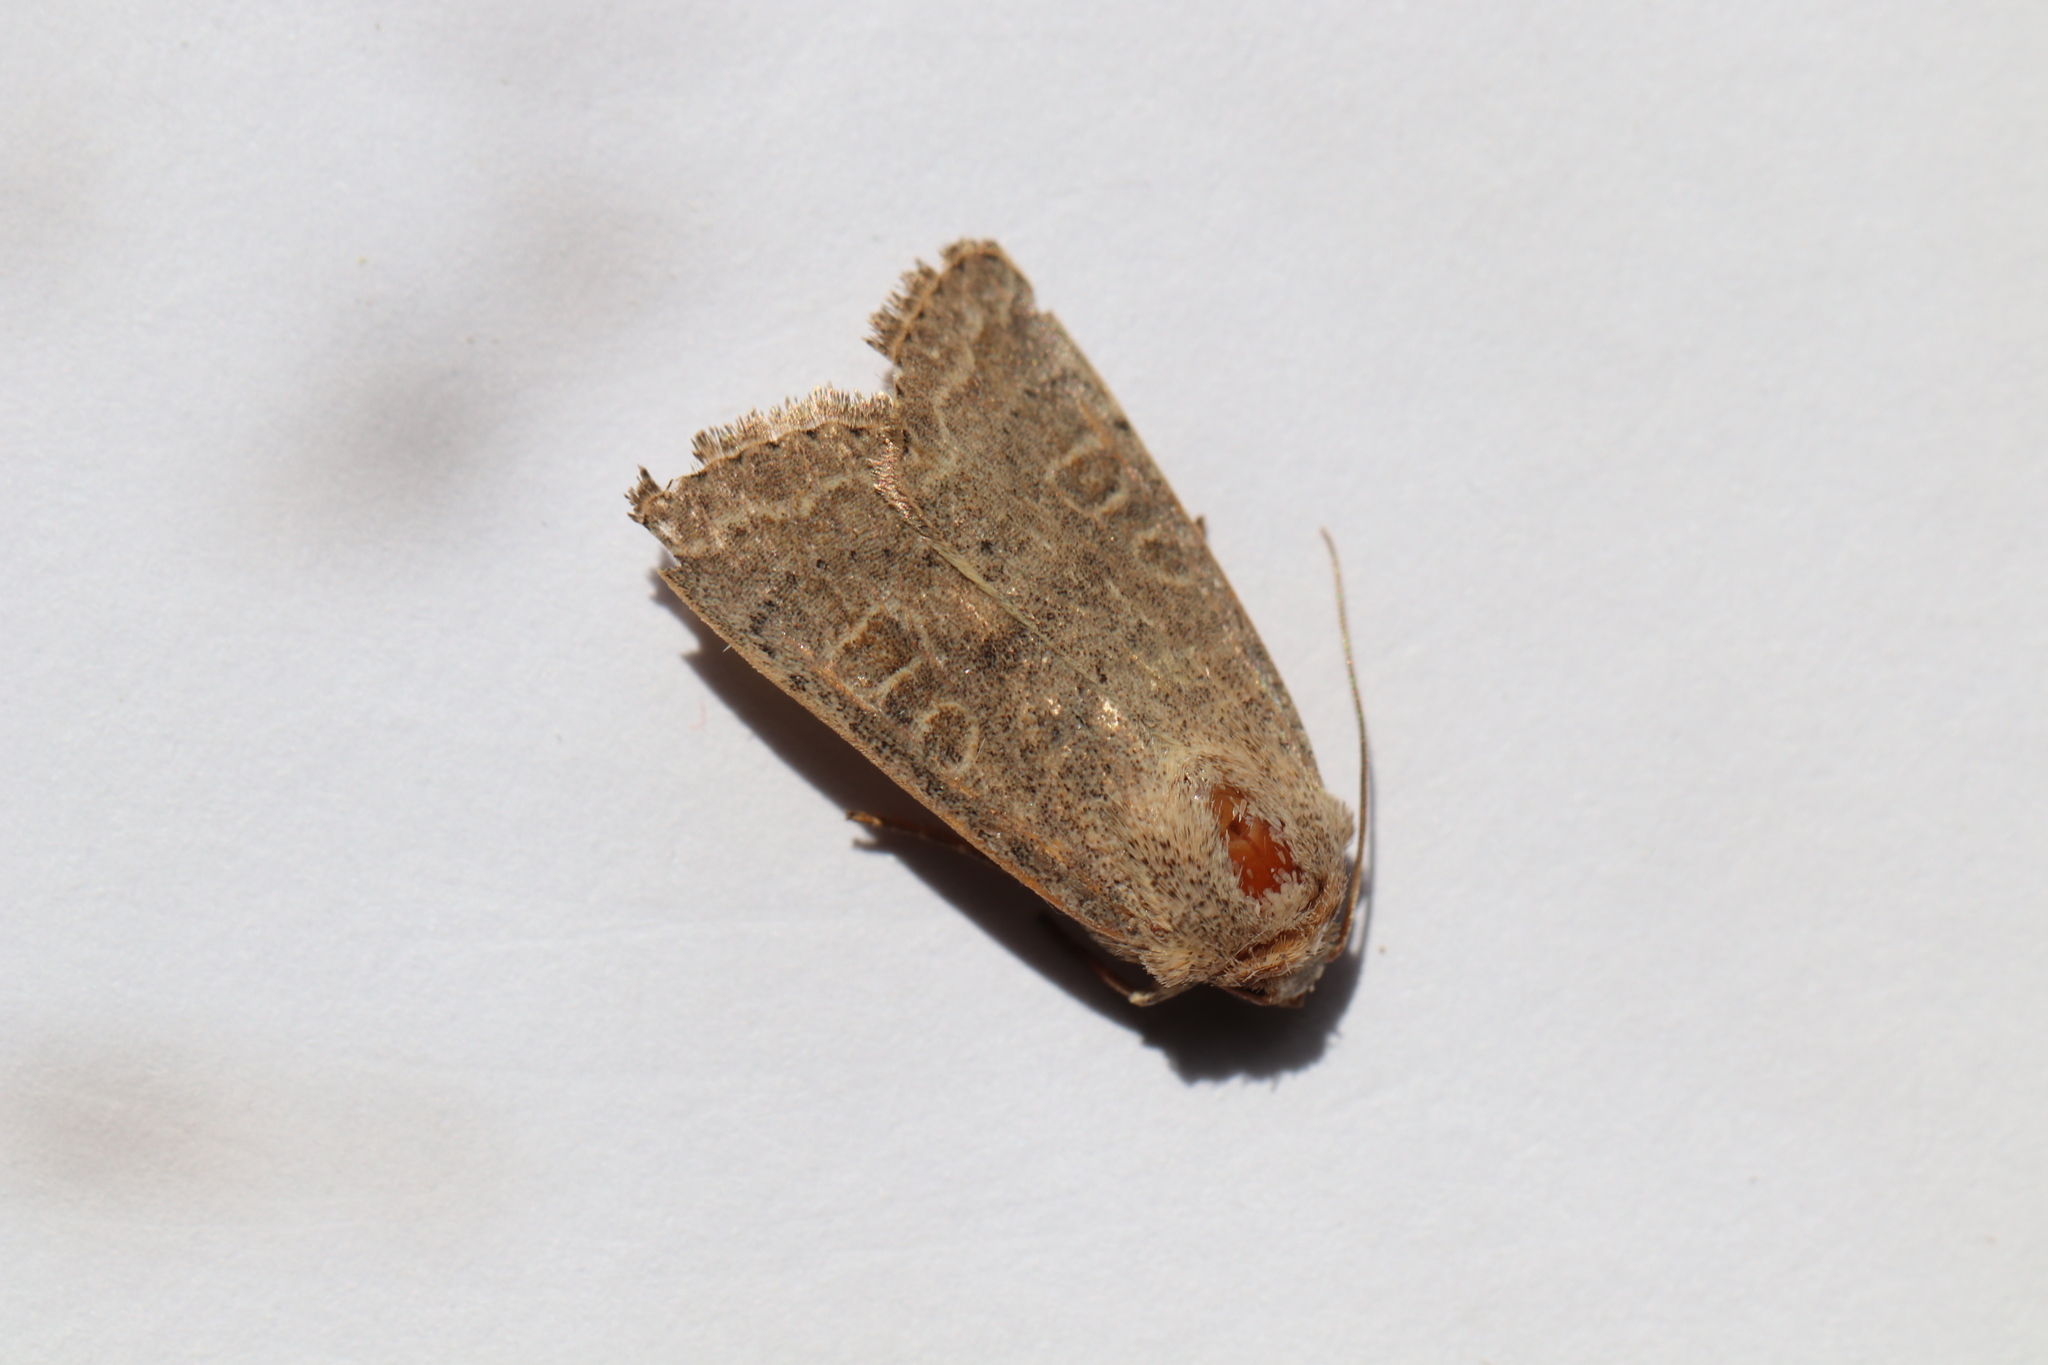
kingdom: Animalia
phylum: Arthropoda
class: Insecta
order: Lepidoptera
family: Noctuidae
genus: Hoplodrina
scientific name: Hoplodrina ambigua
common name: Vine's rustic
